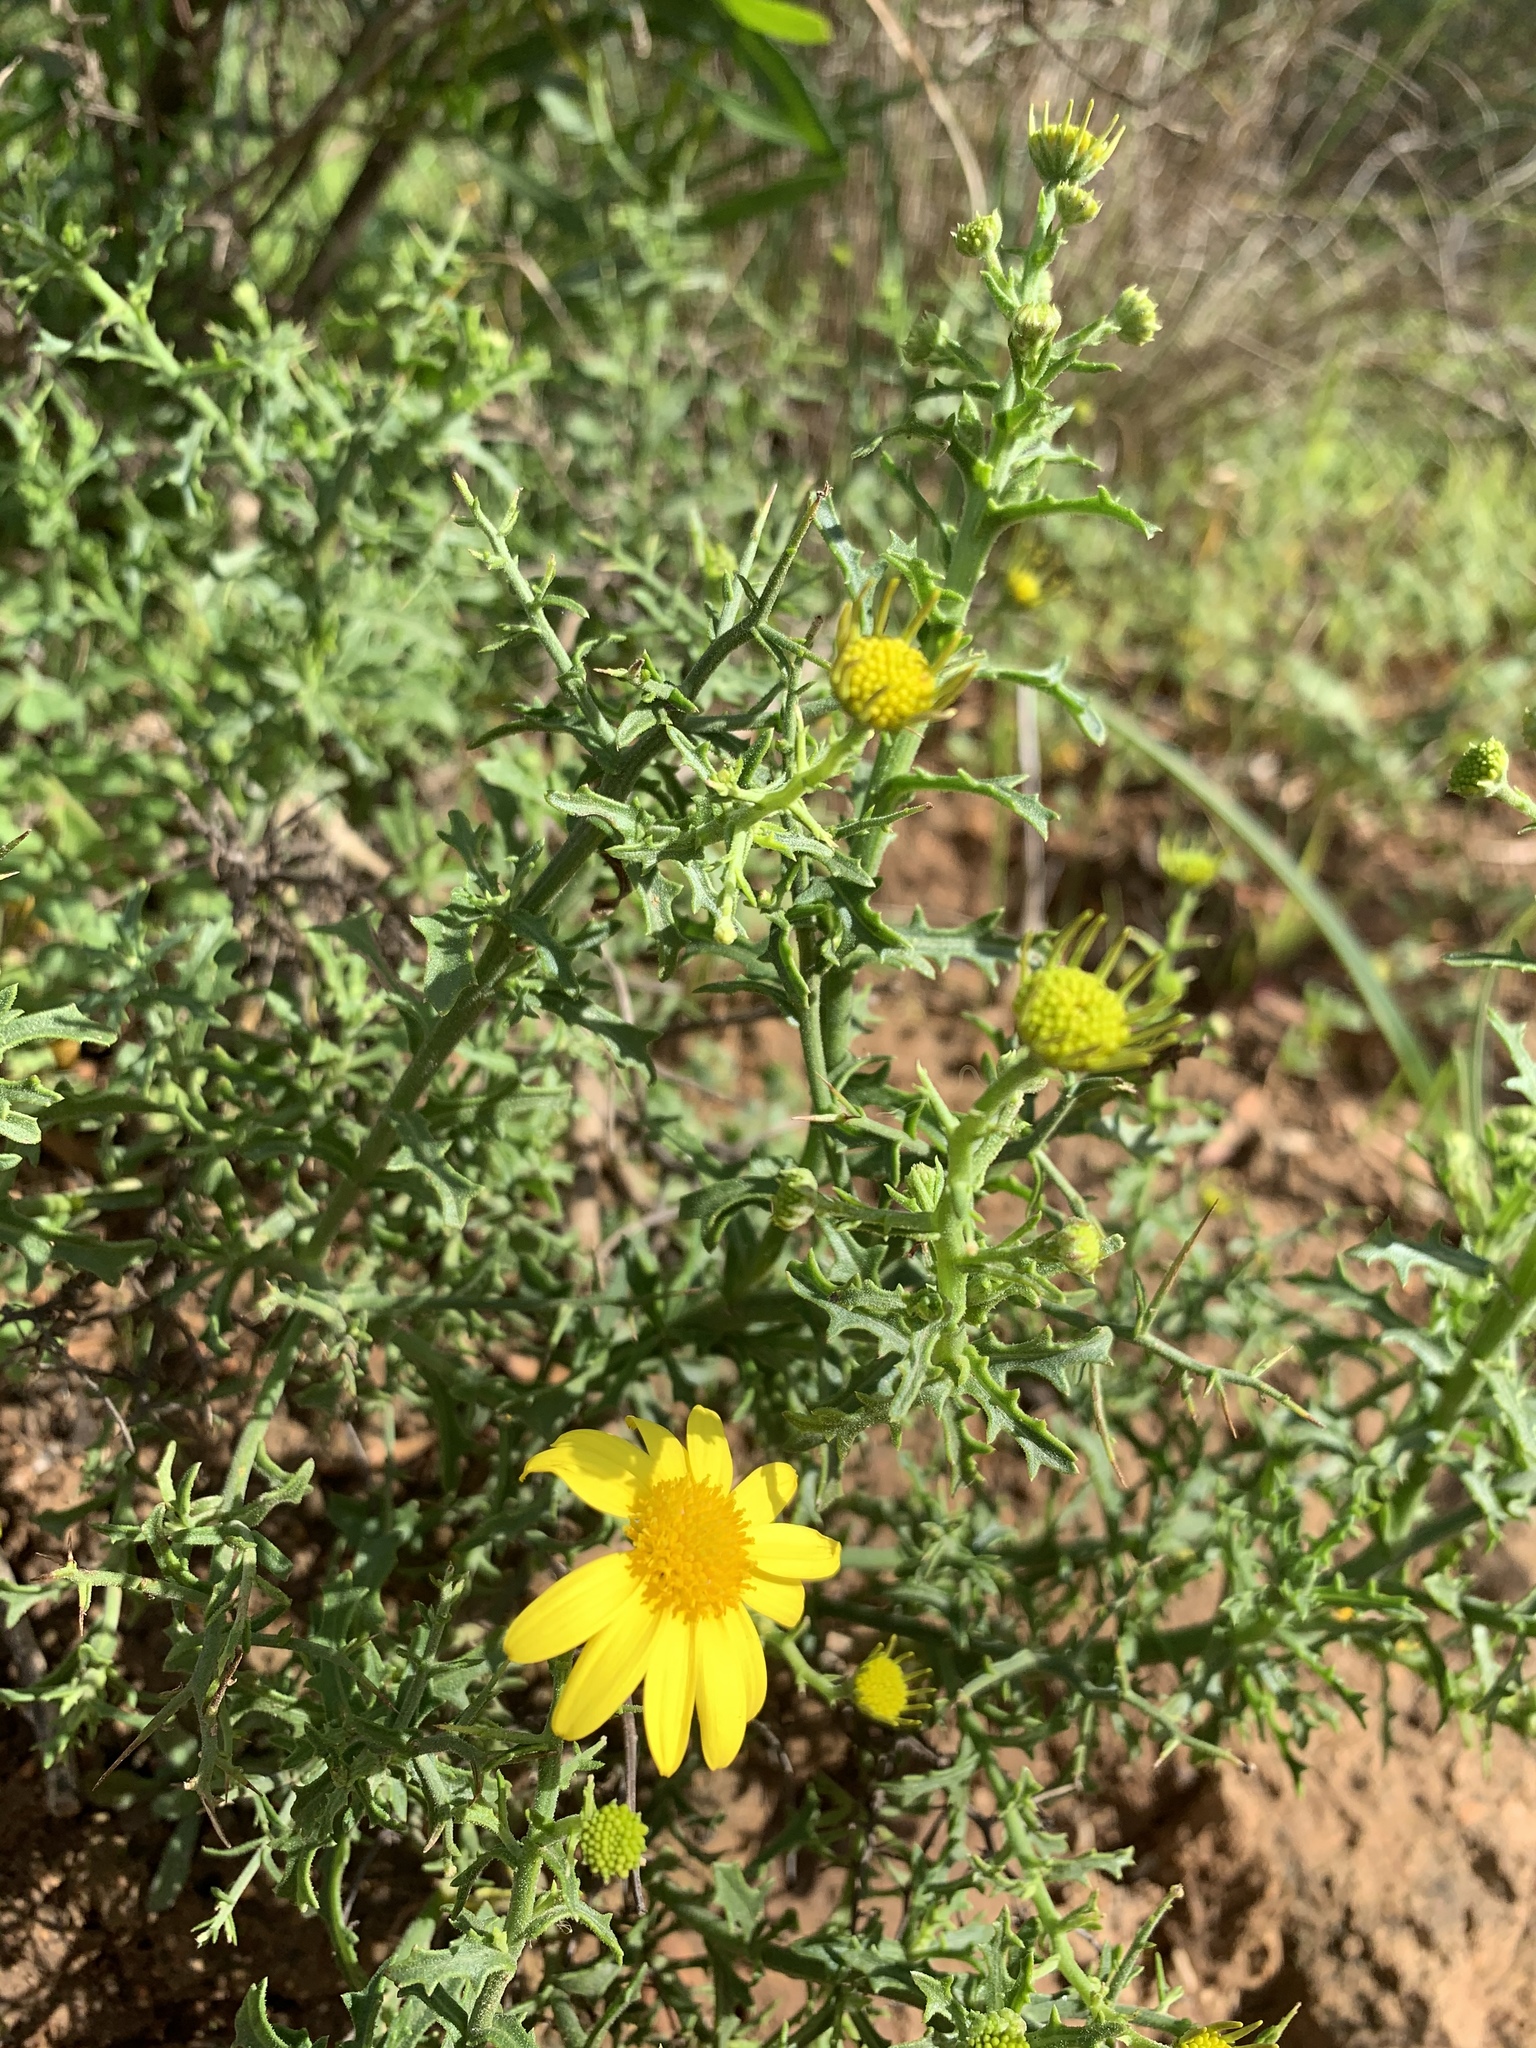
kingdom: Plantae
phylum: Tracheophyta
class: Magnoliopsida
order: Asterales
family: Asteraceae
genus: Osteospermum
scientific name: Osteospermum spinosum
